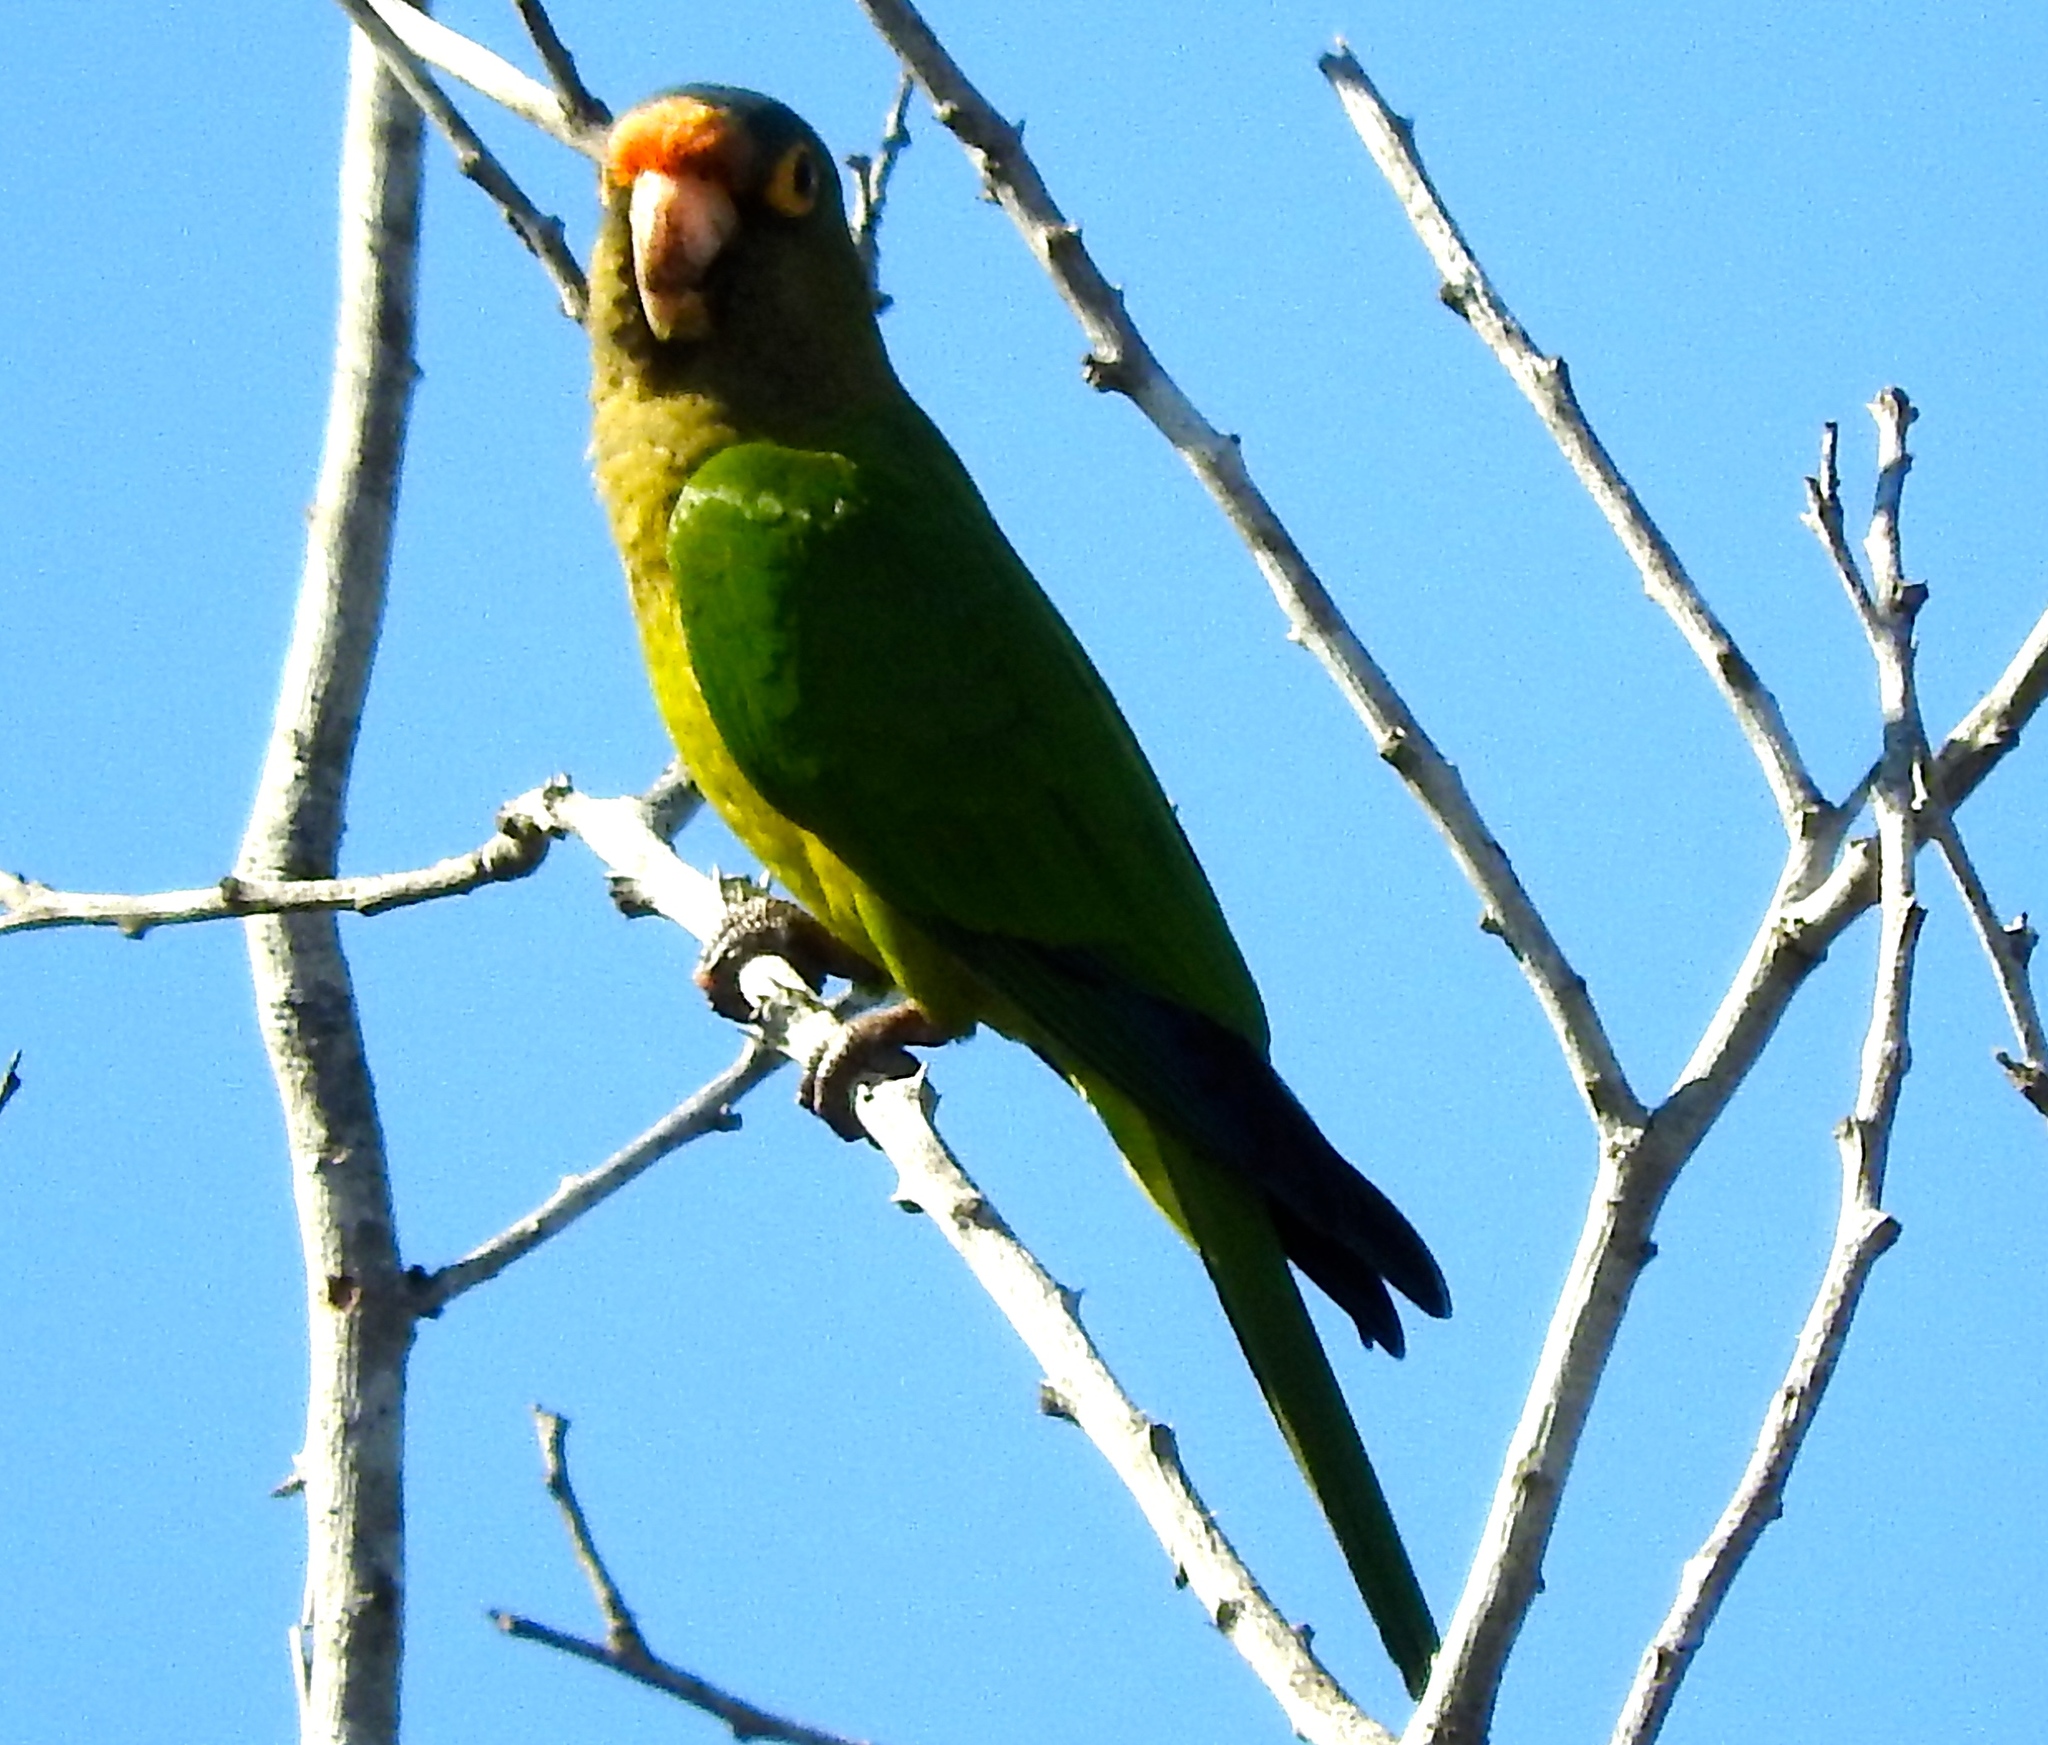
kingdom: Animalia
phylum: Chordata
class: Aves
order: Psittaciformes
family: Psittacidae
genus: Aratinga
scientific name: Aratinga canicularis
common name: Orange-fronted parakeet
